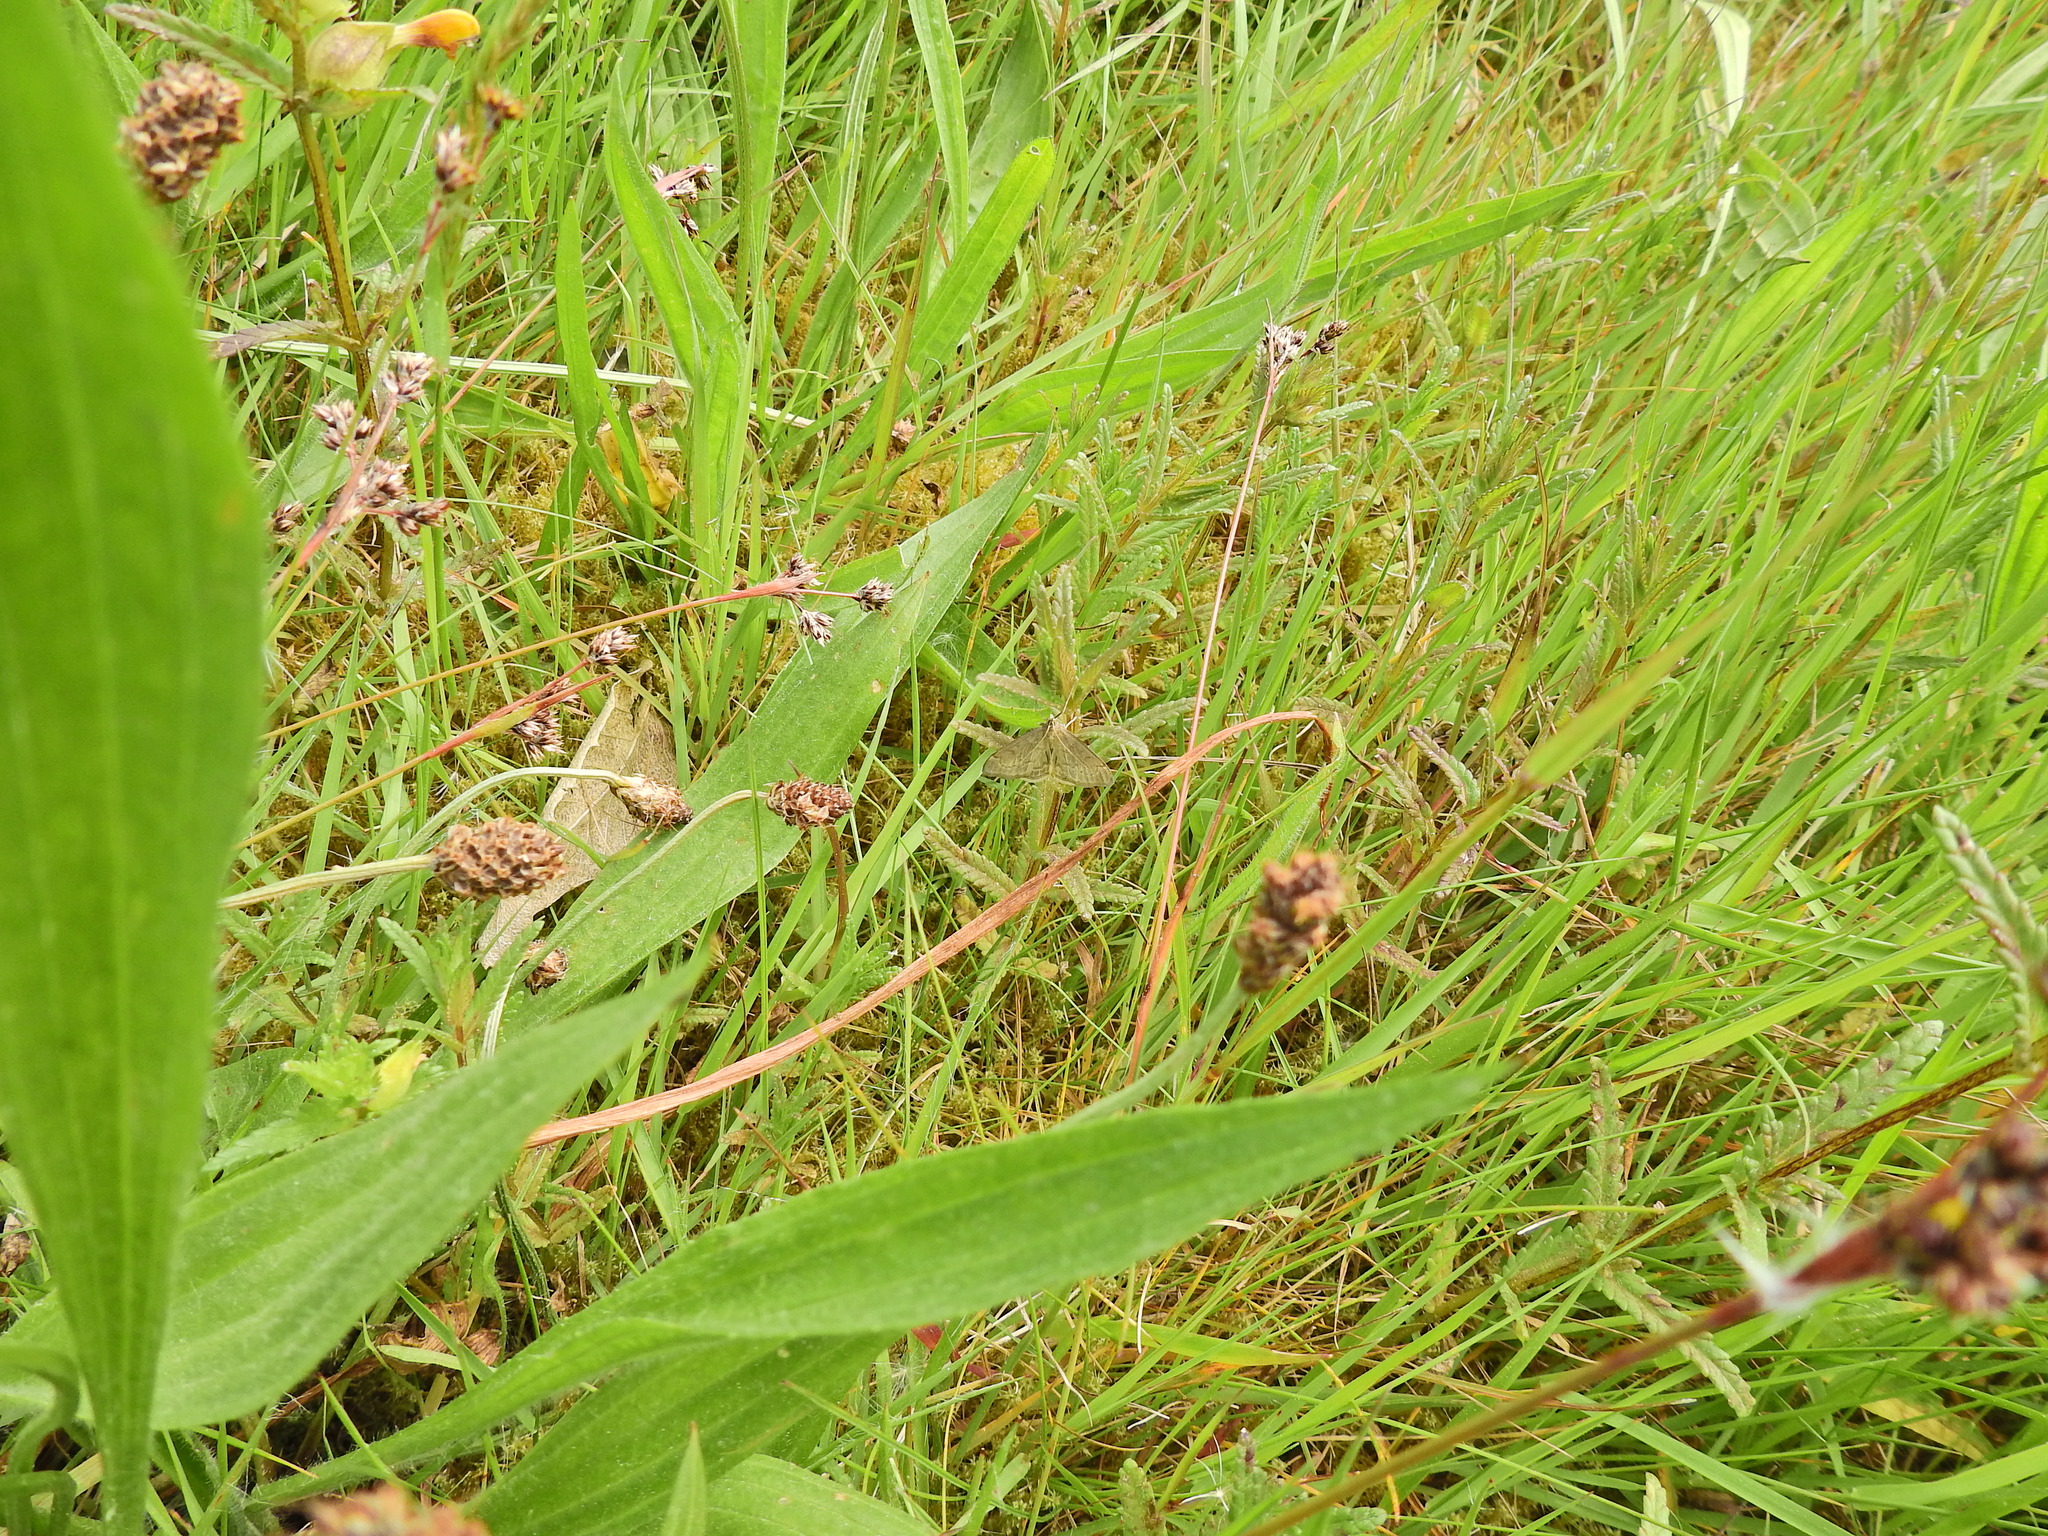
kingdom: Animalia
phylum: Arthropoda
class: Insecta
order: Lepidoptera
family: Crambidae
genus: Anania
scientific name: Anania fuscalis
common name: Cinerous pearl
